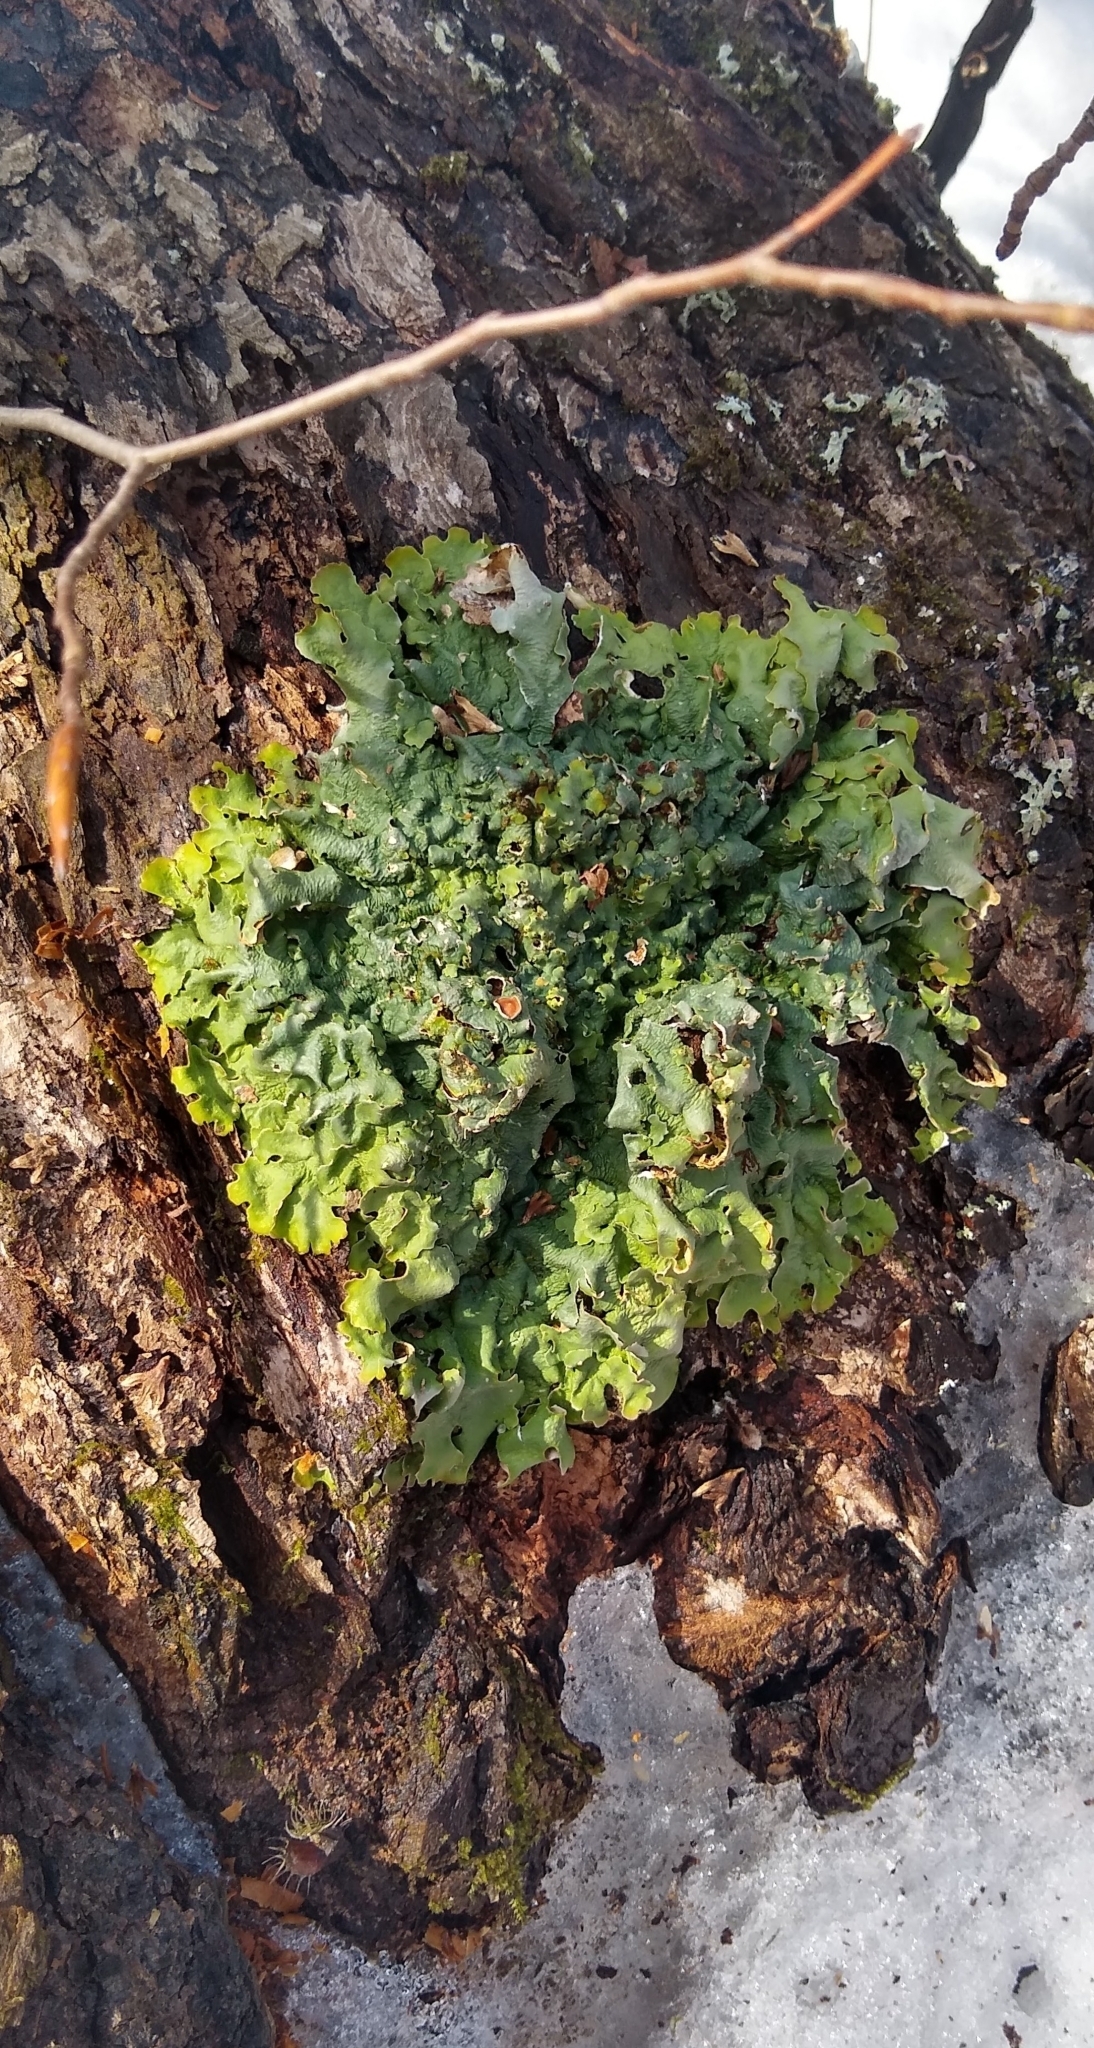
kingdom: Fungi
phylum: Ascomycota
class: Lecanoromycetes
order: Peltigerales
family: Lobariaceae
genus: Ricasolia
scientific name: Ricasolia quercizans
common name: Smooth lungwort
